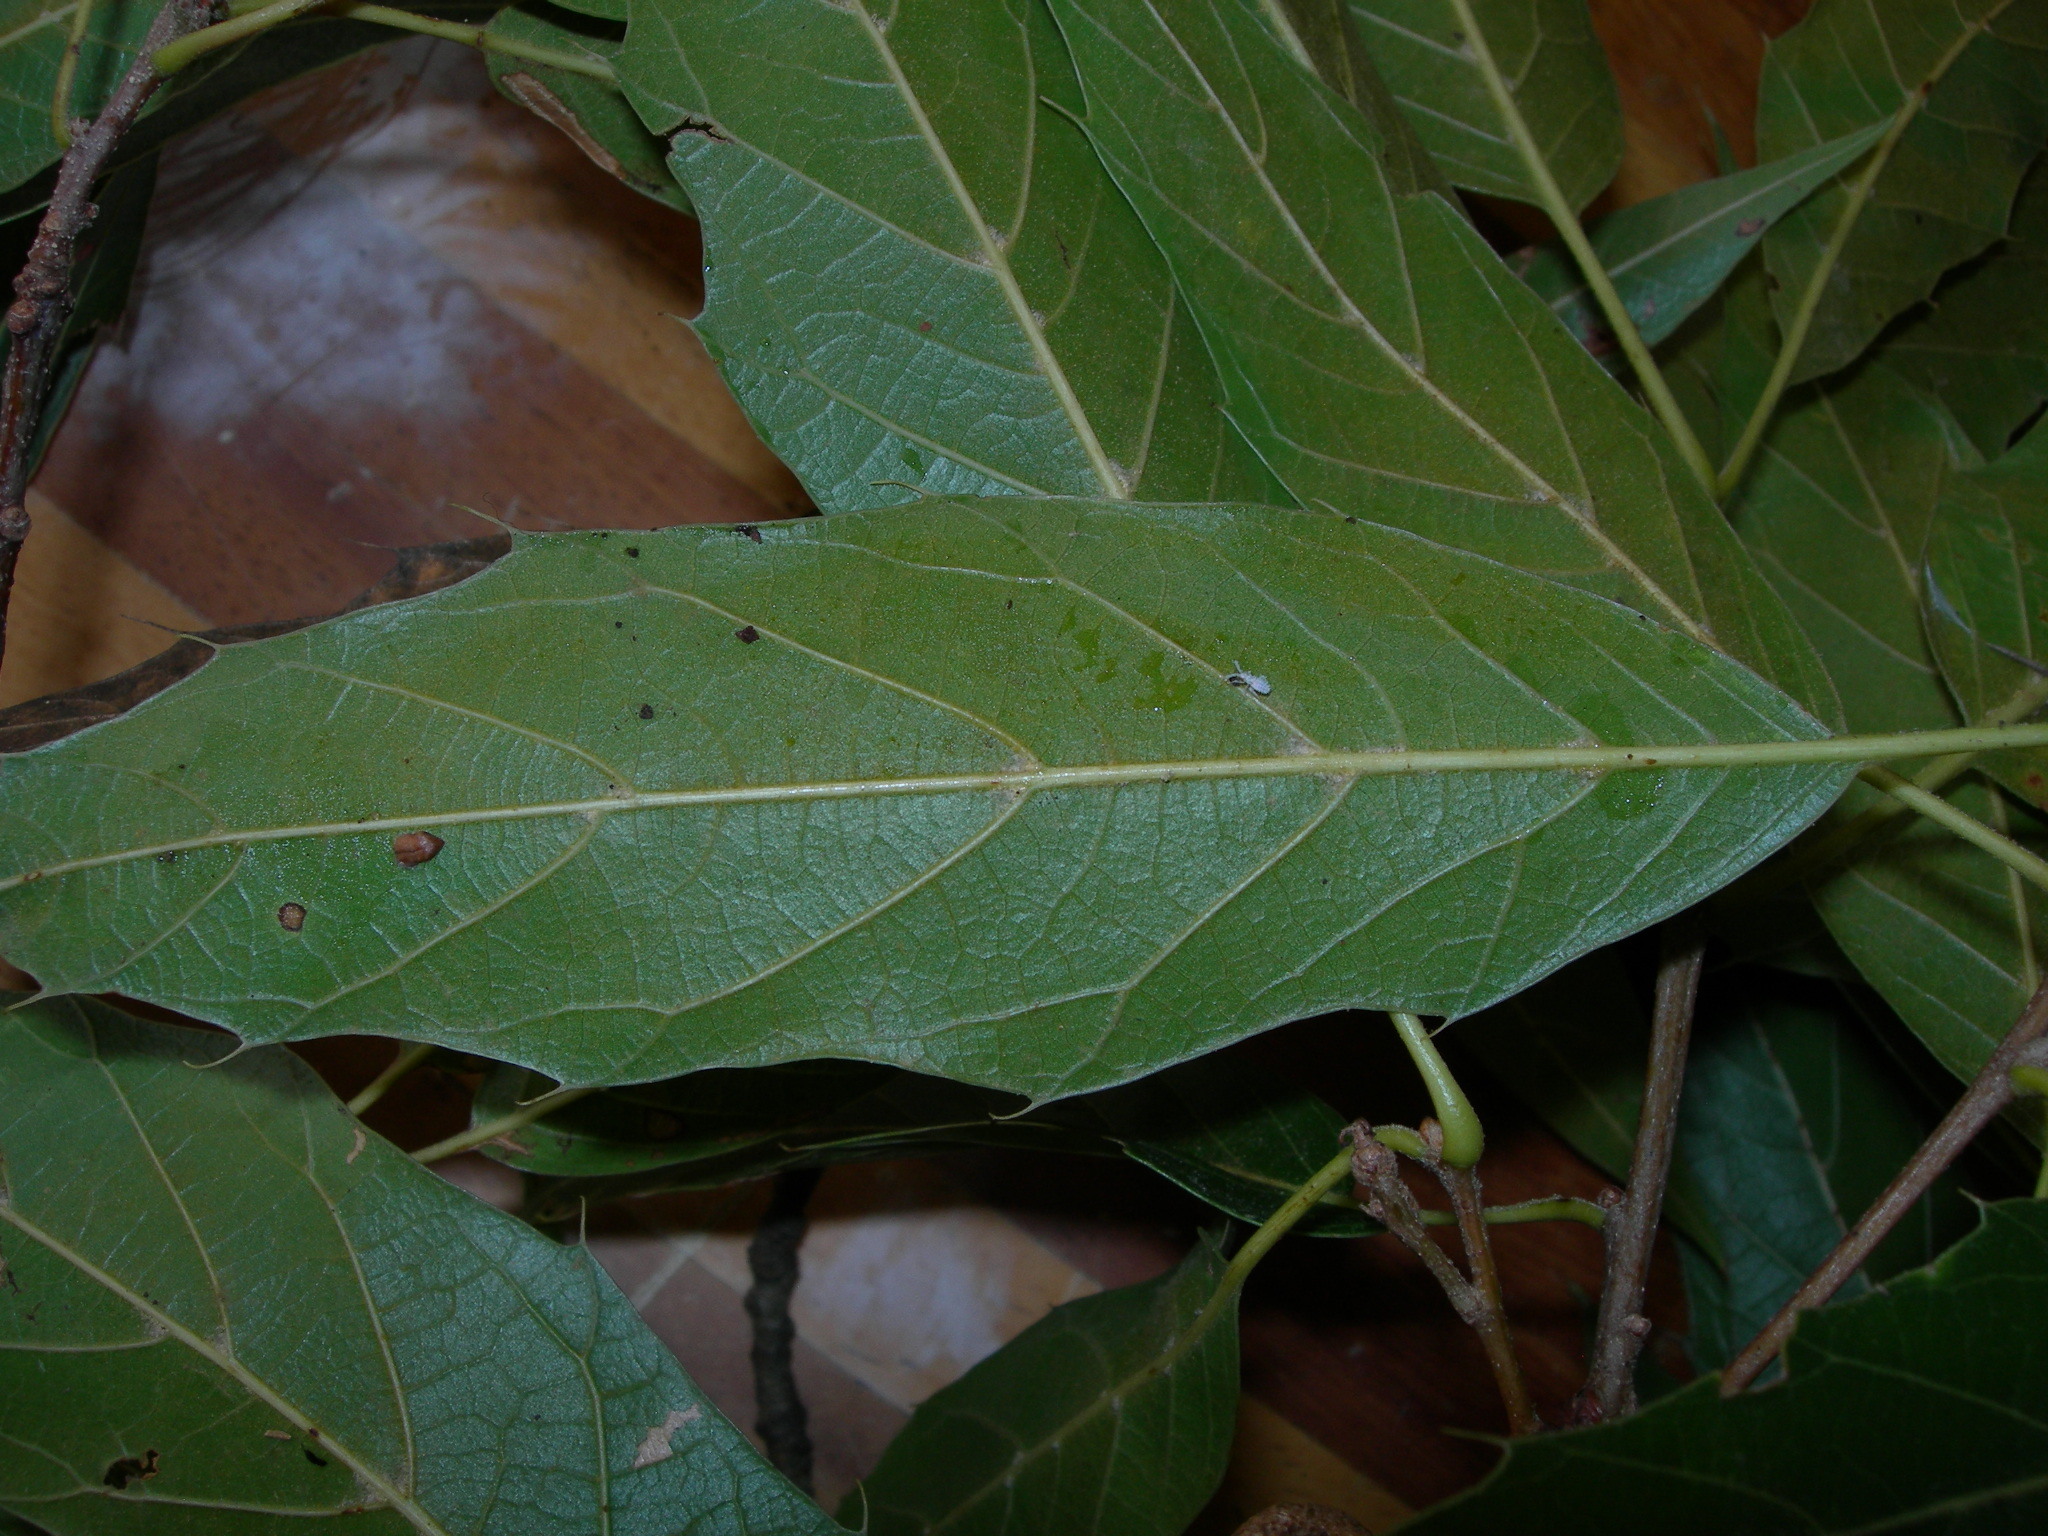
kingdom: Plantae
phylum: Tracheophyta
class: Magnoliopsida
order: Fagales
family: Fagaceae
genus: Quercus
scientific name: Quercus acutifolia
